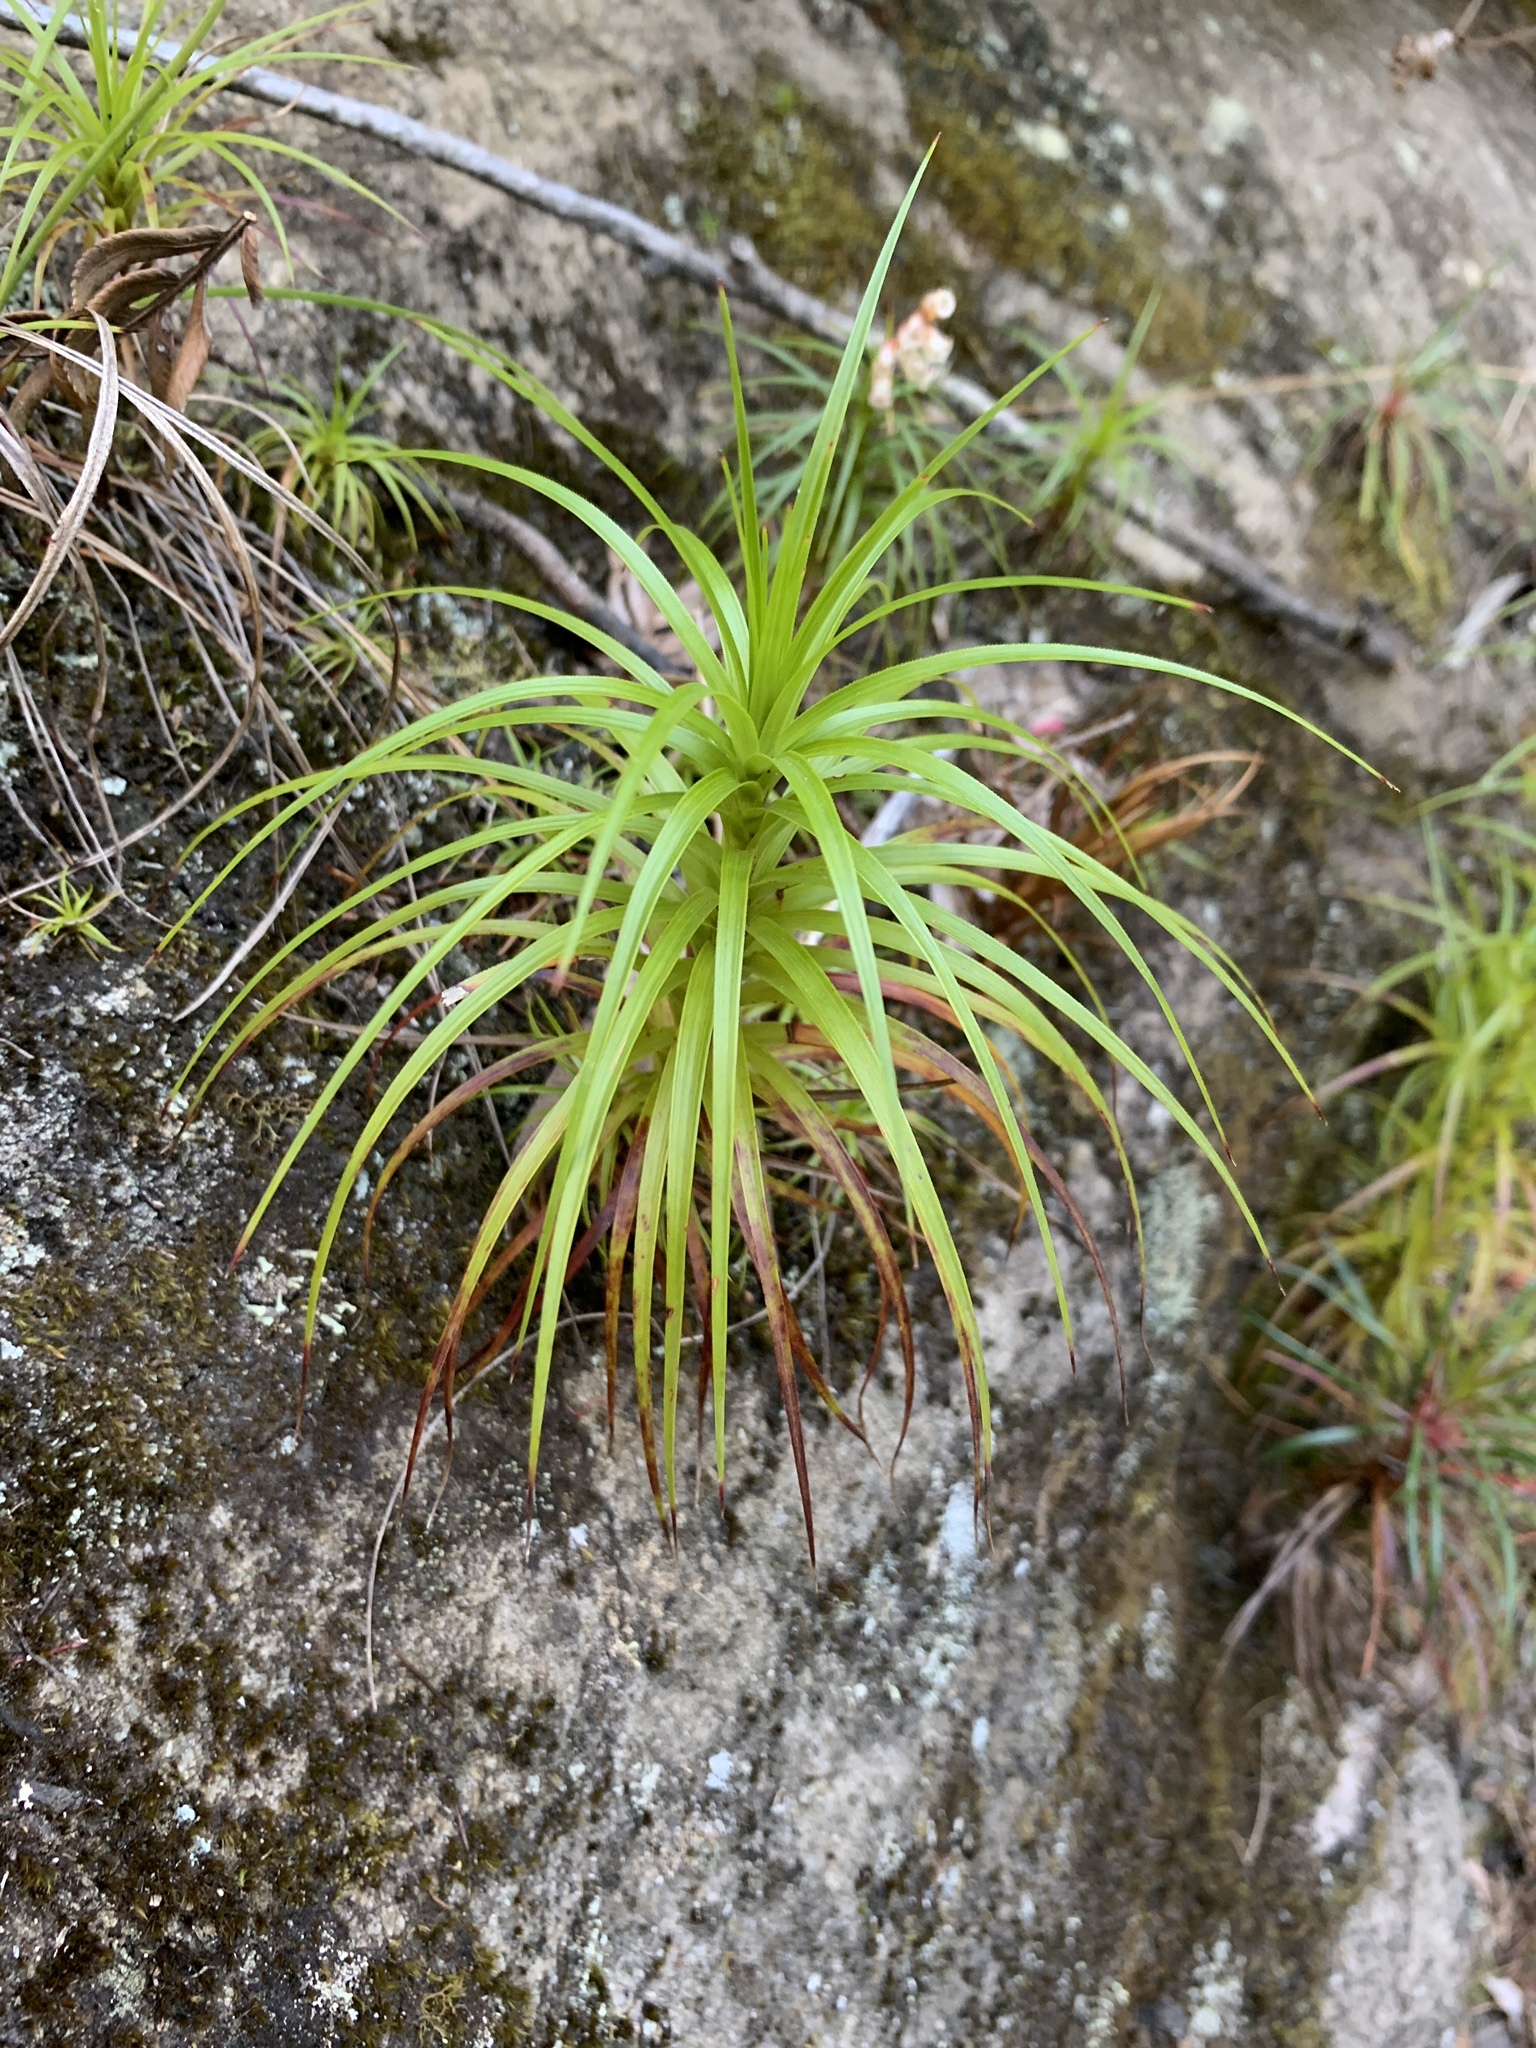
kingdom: Plantae
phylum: Tracheophyta
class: Magnoliopsida
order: Ericales
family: Ericaceae
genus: Dracophyllum
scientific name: Dracophyllum secundum
